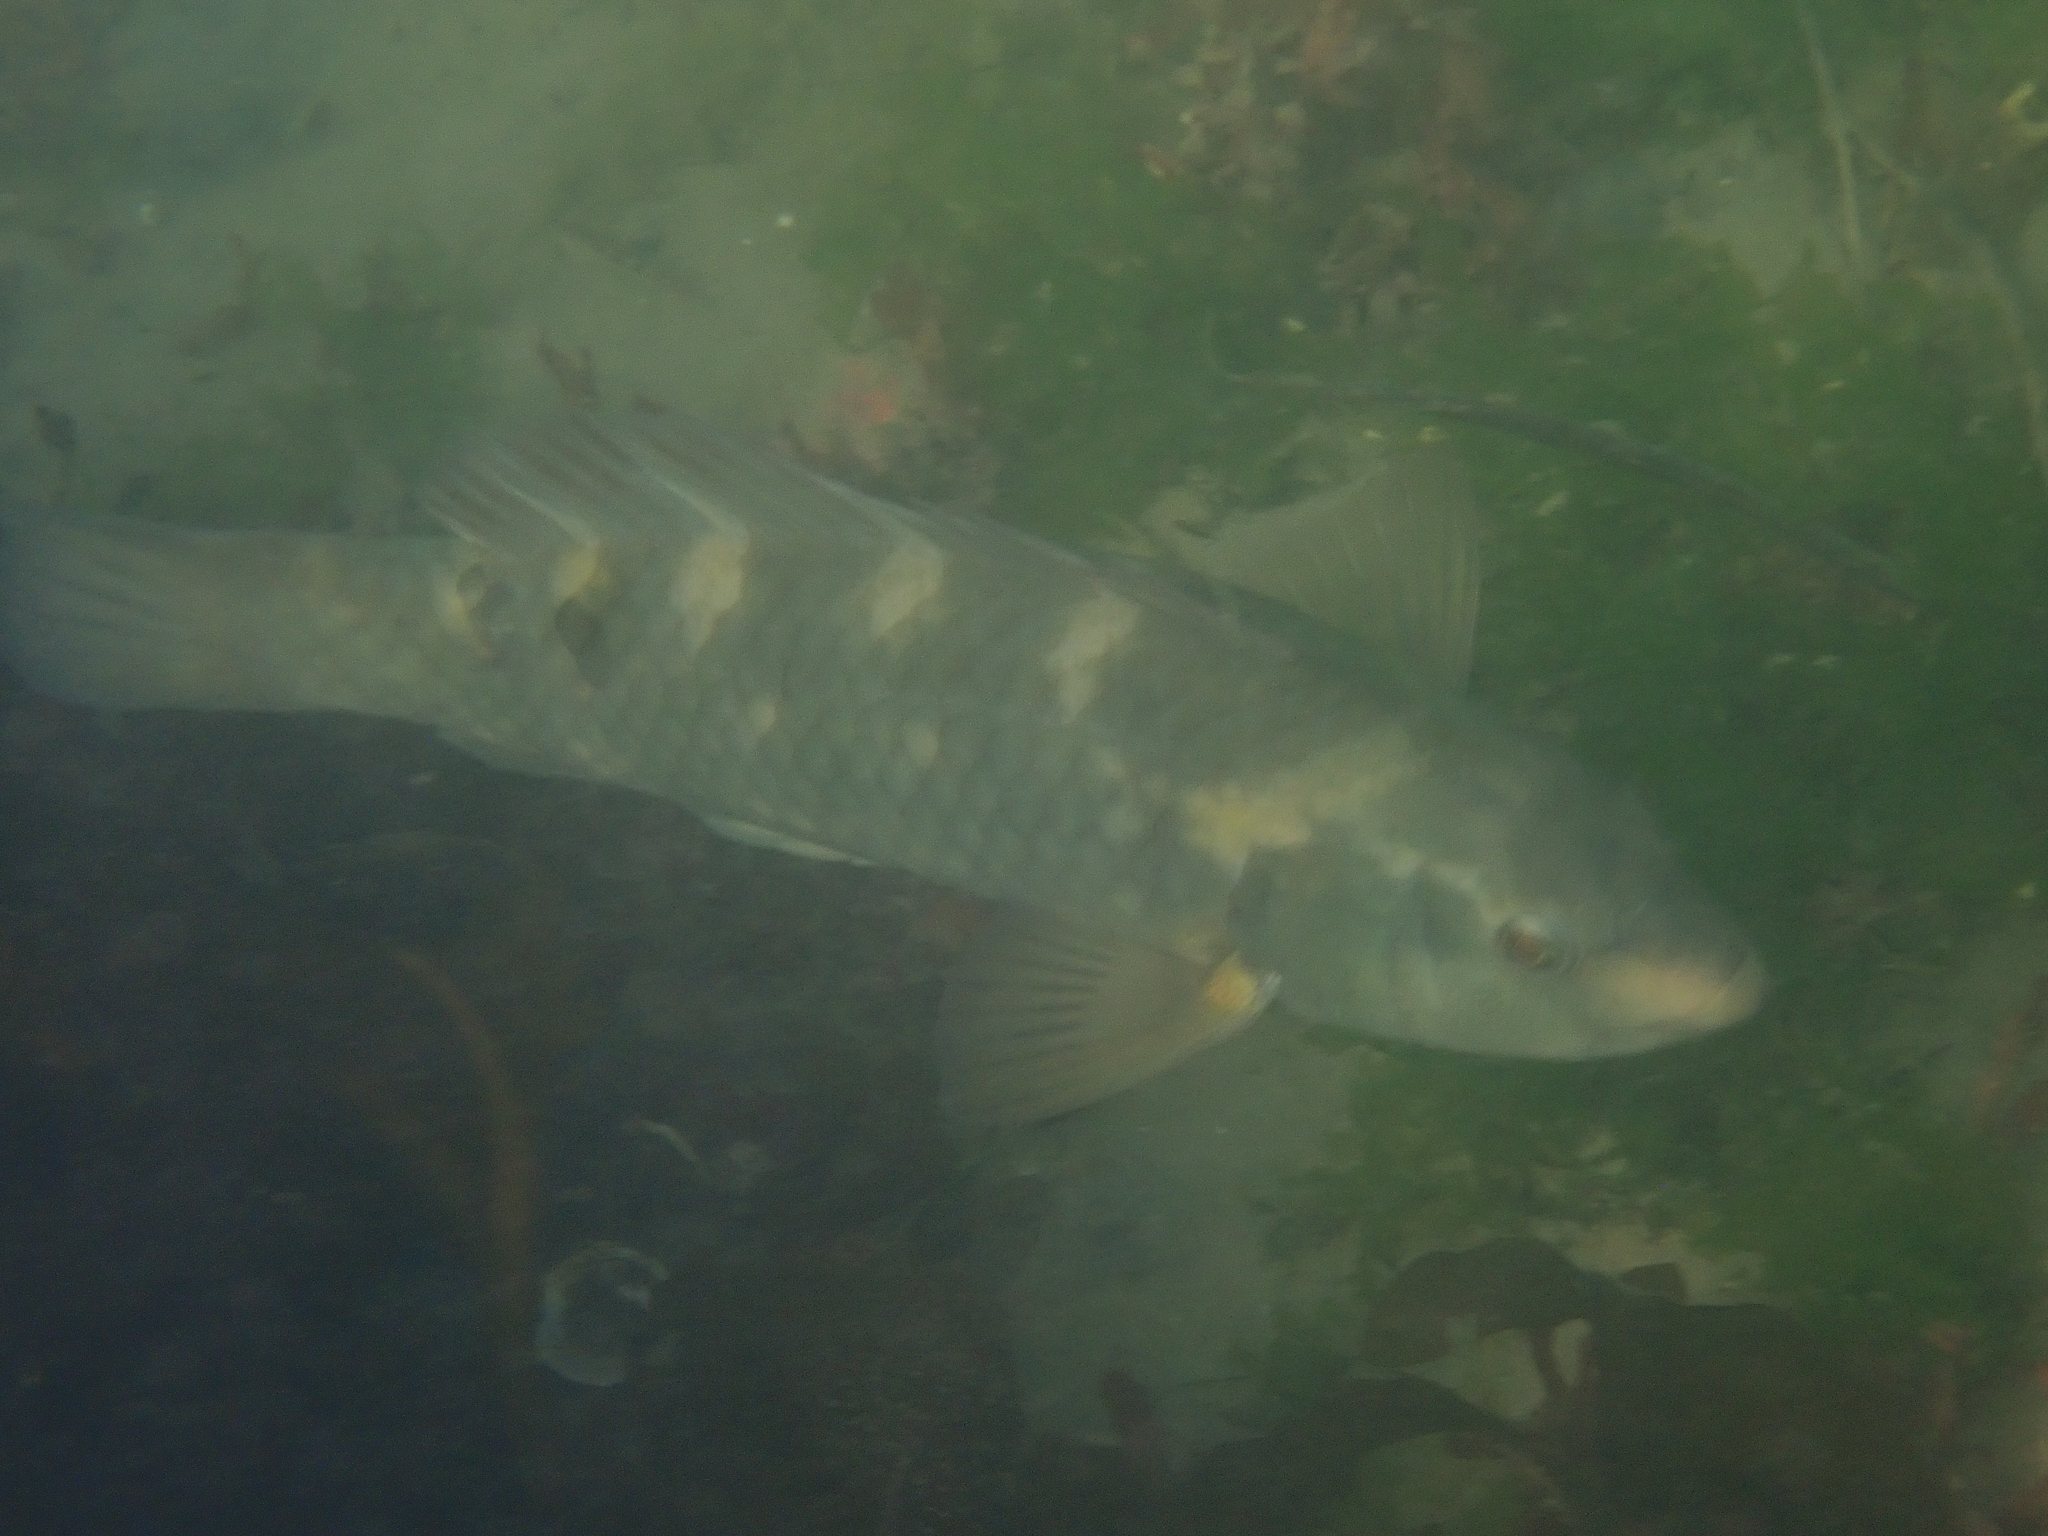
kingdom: Animalia
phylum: Chordata
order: Perciformes
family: Labridae
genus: Notolabrus
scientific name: Notolabrus fucicola
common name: Banded parrotfish
